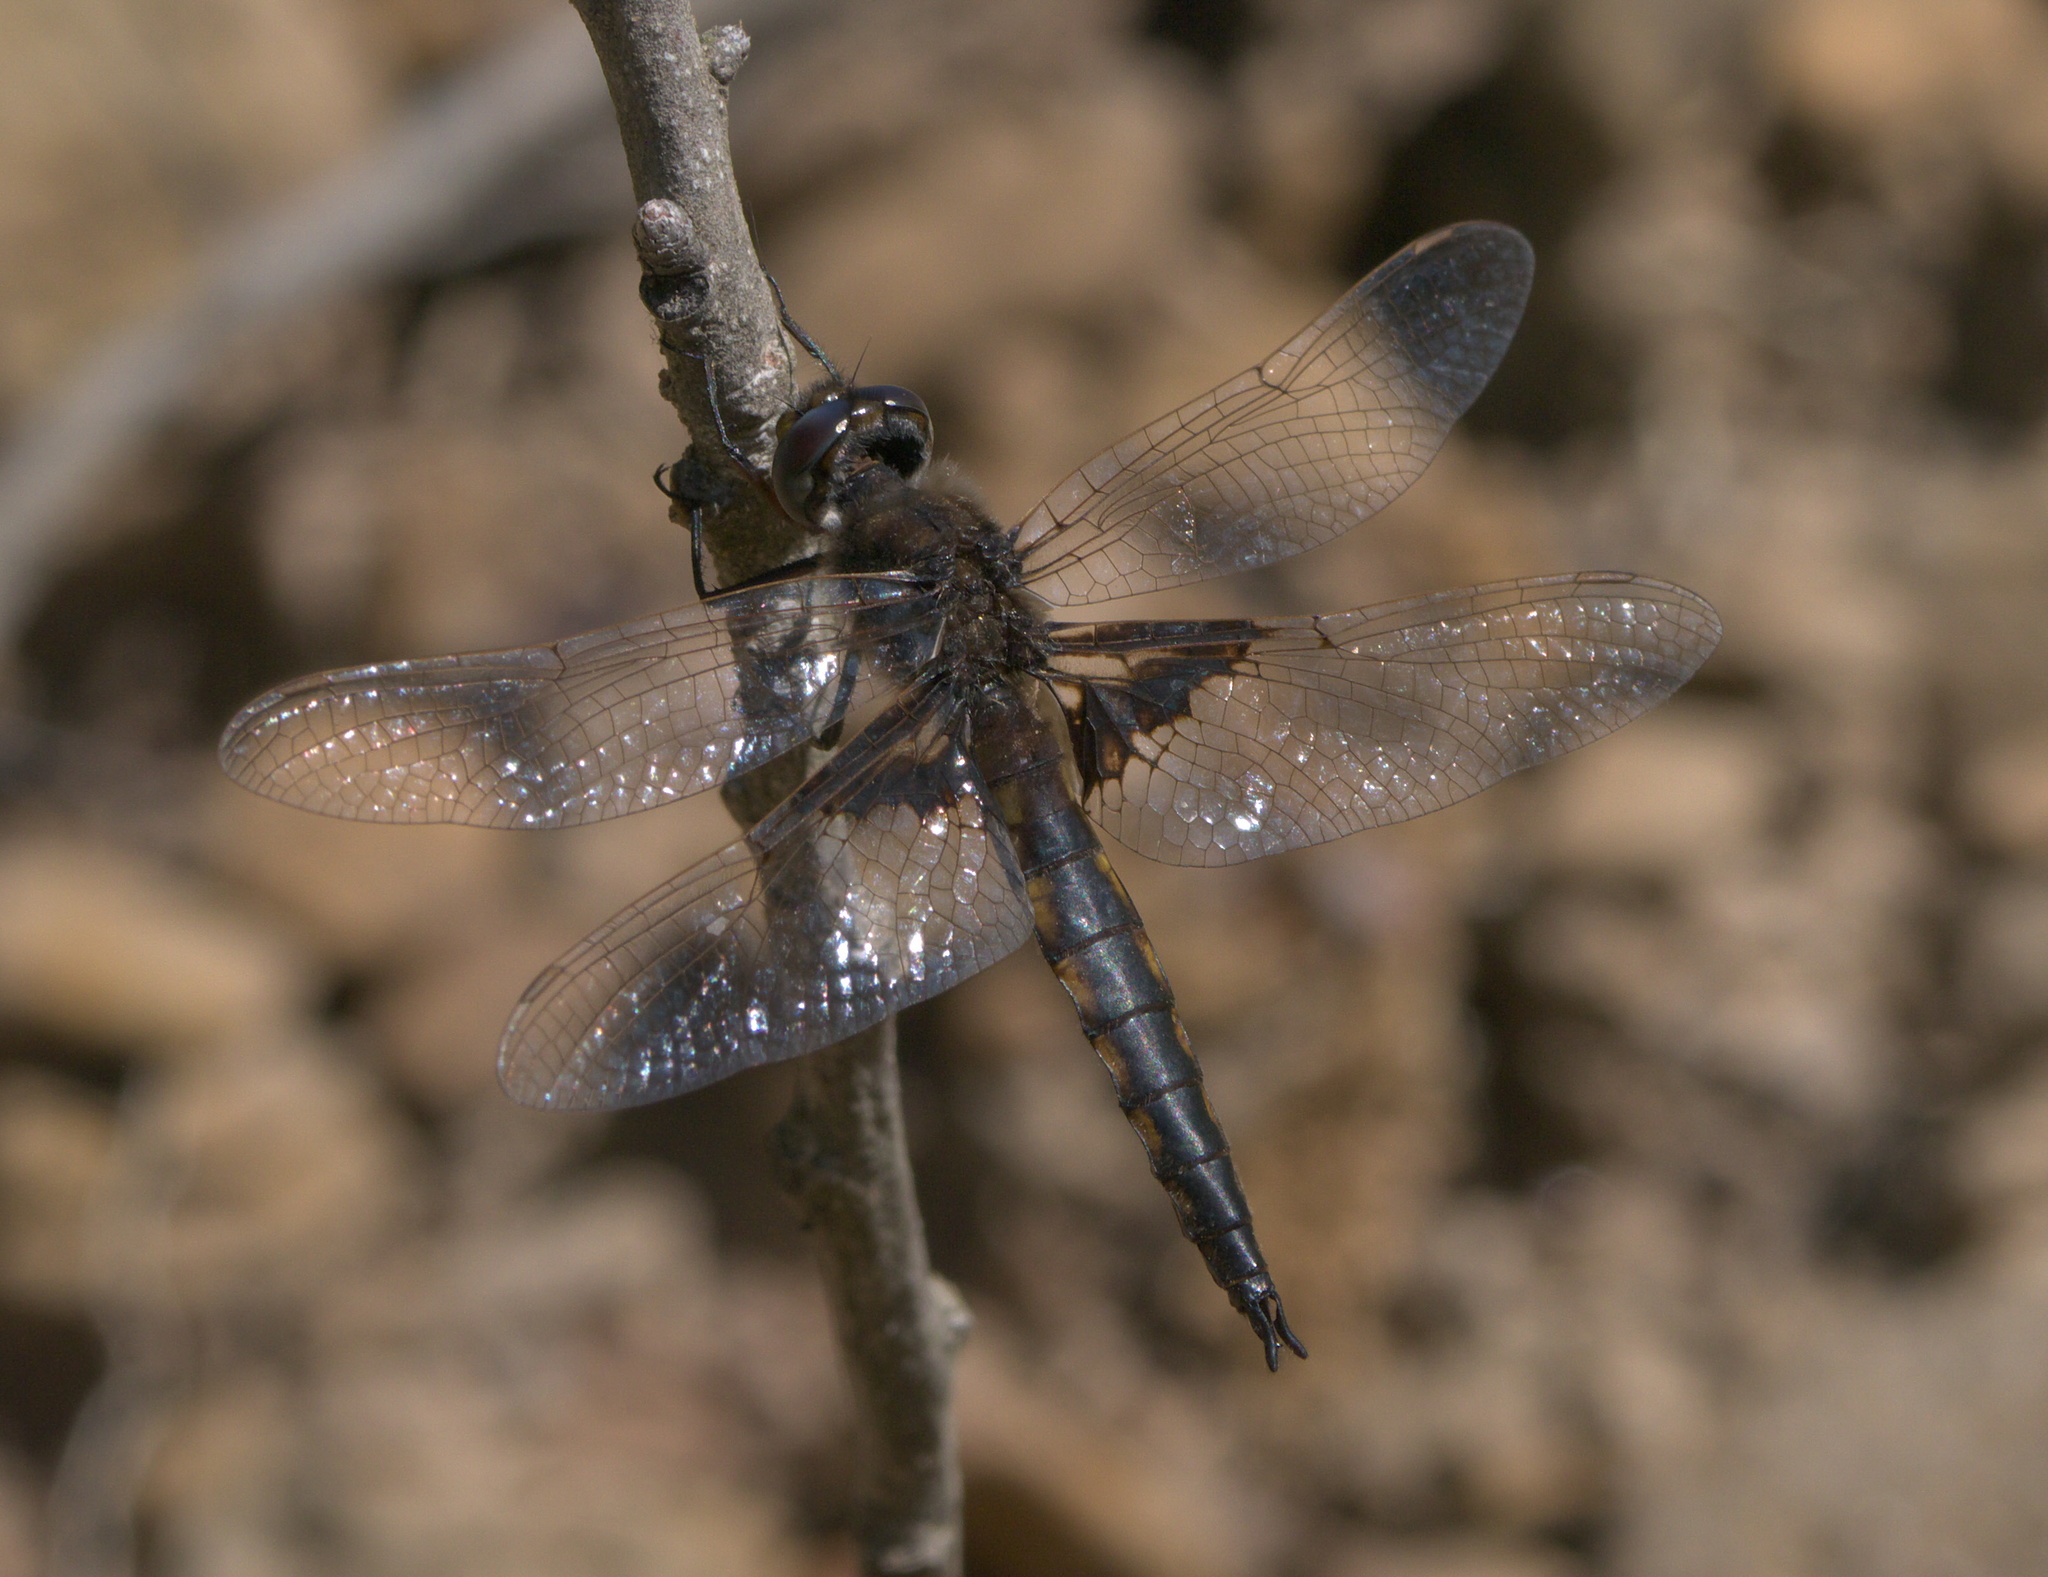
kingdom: Animalia
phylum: Arthropoda
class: Insecta
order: Odonata
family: Corduliidae
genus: Epitheca
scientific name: Epitheca semiaquea
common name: Mantled baskettail
